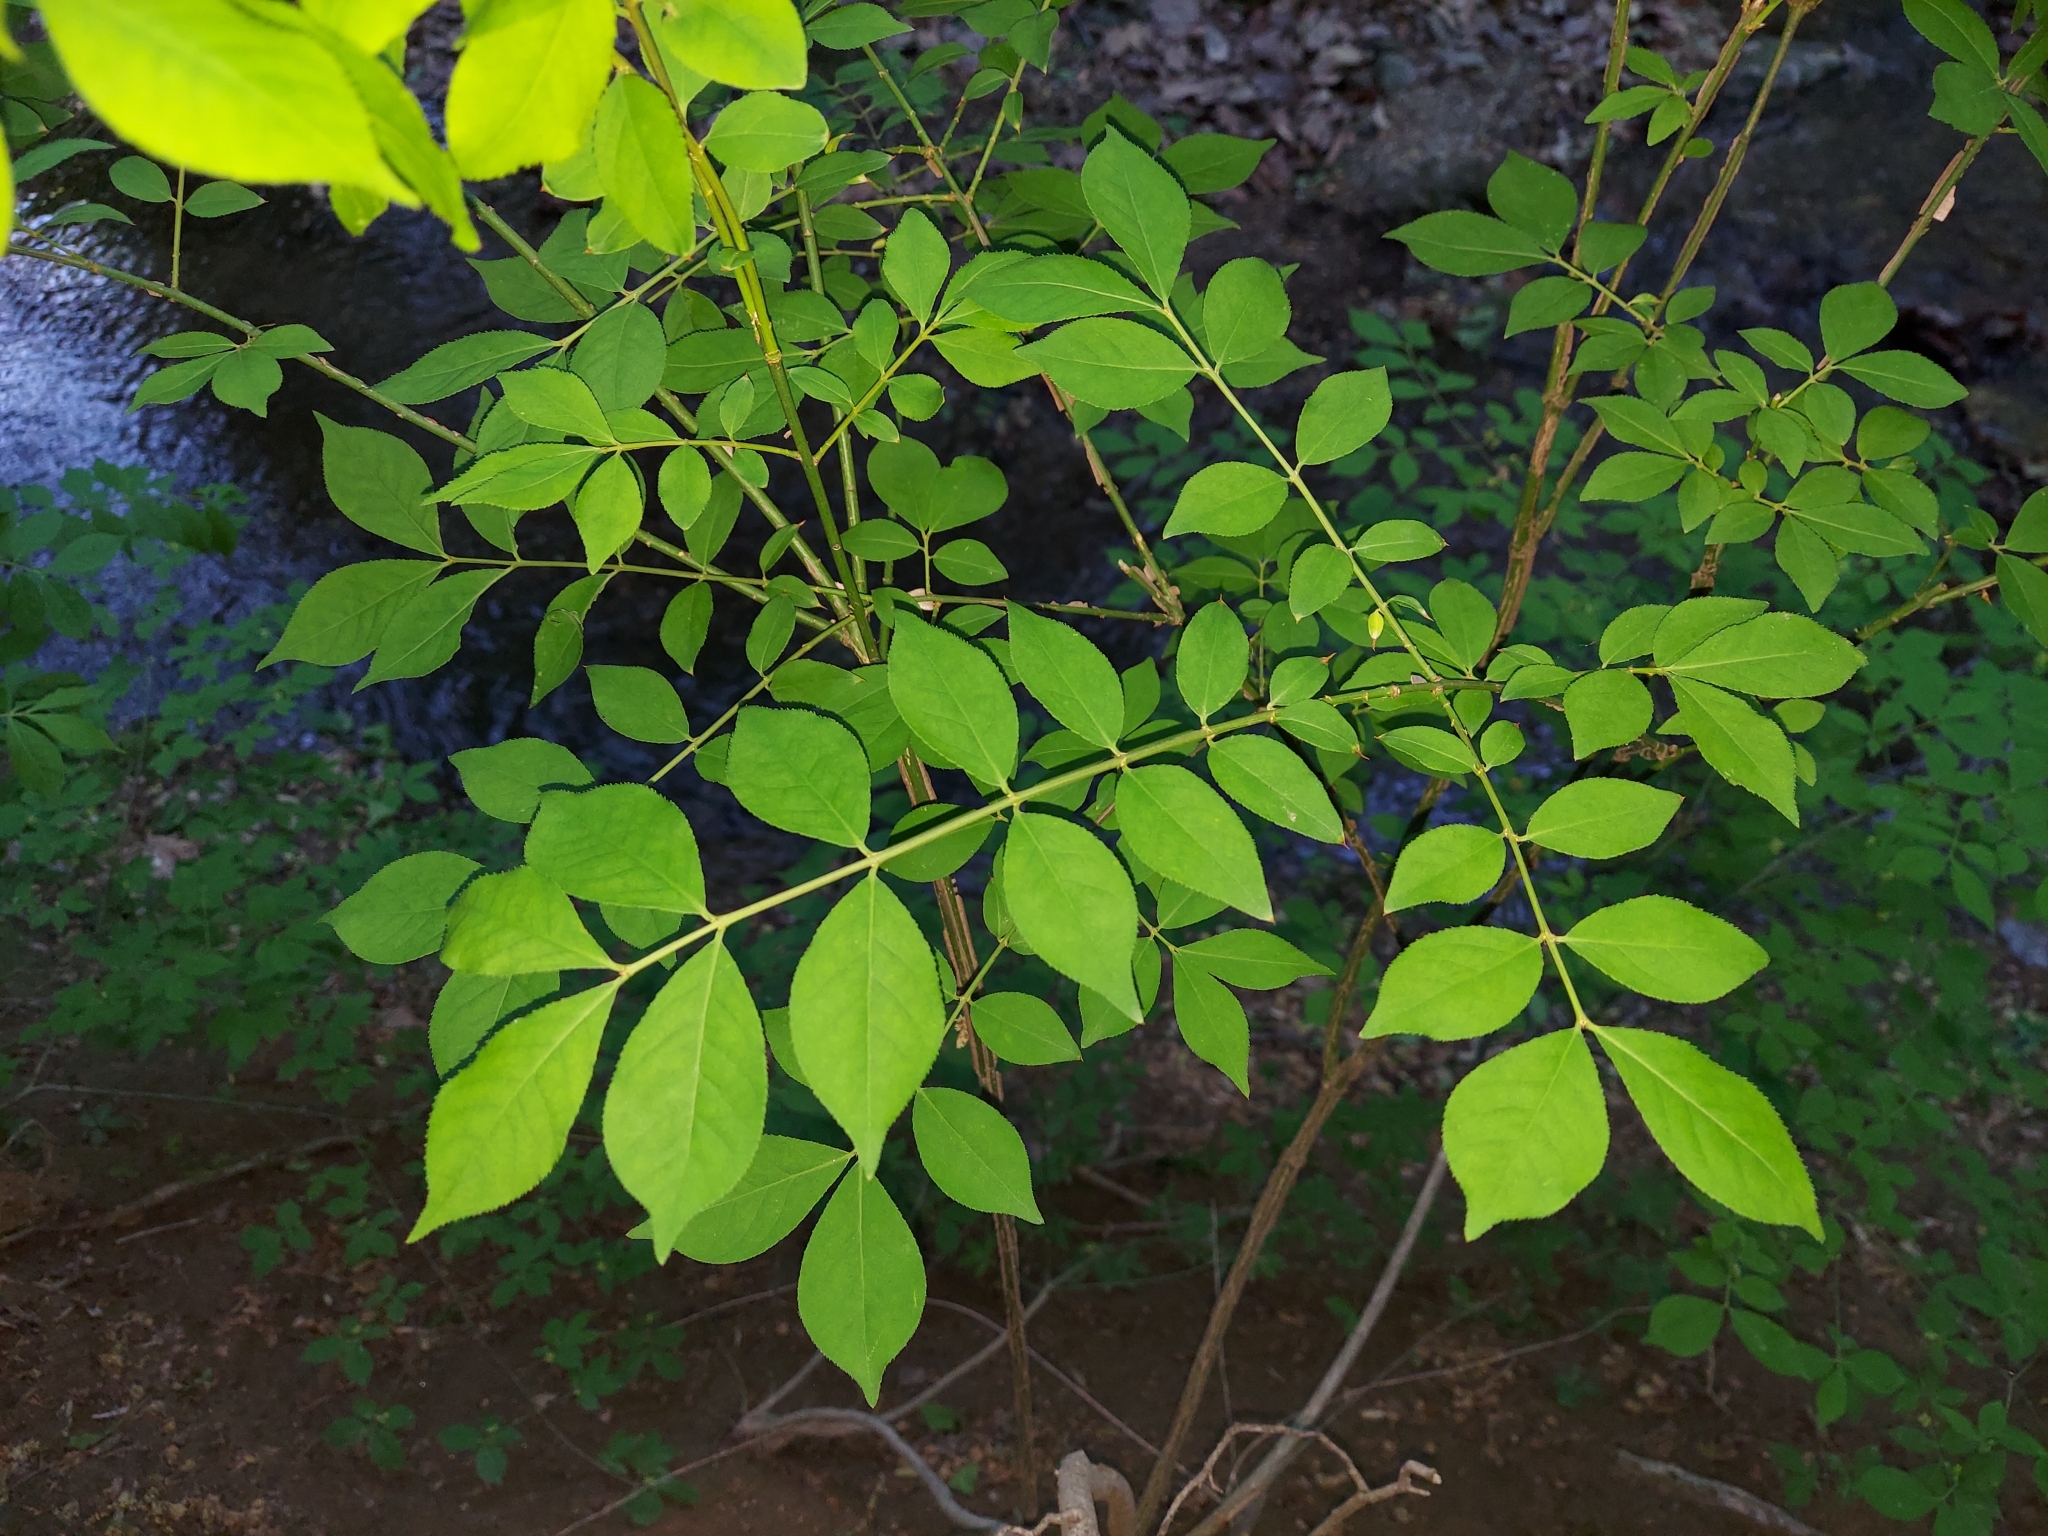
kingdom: Plantae
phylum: Tracheophyta
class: Magnoliopsida
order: Celastrales
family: Celastraceae
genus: Euonymus
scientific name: Euonymus alatus
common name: Winged euonymus
